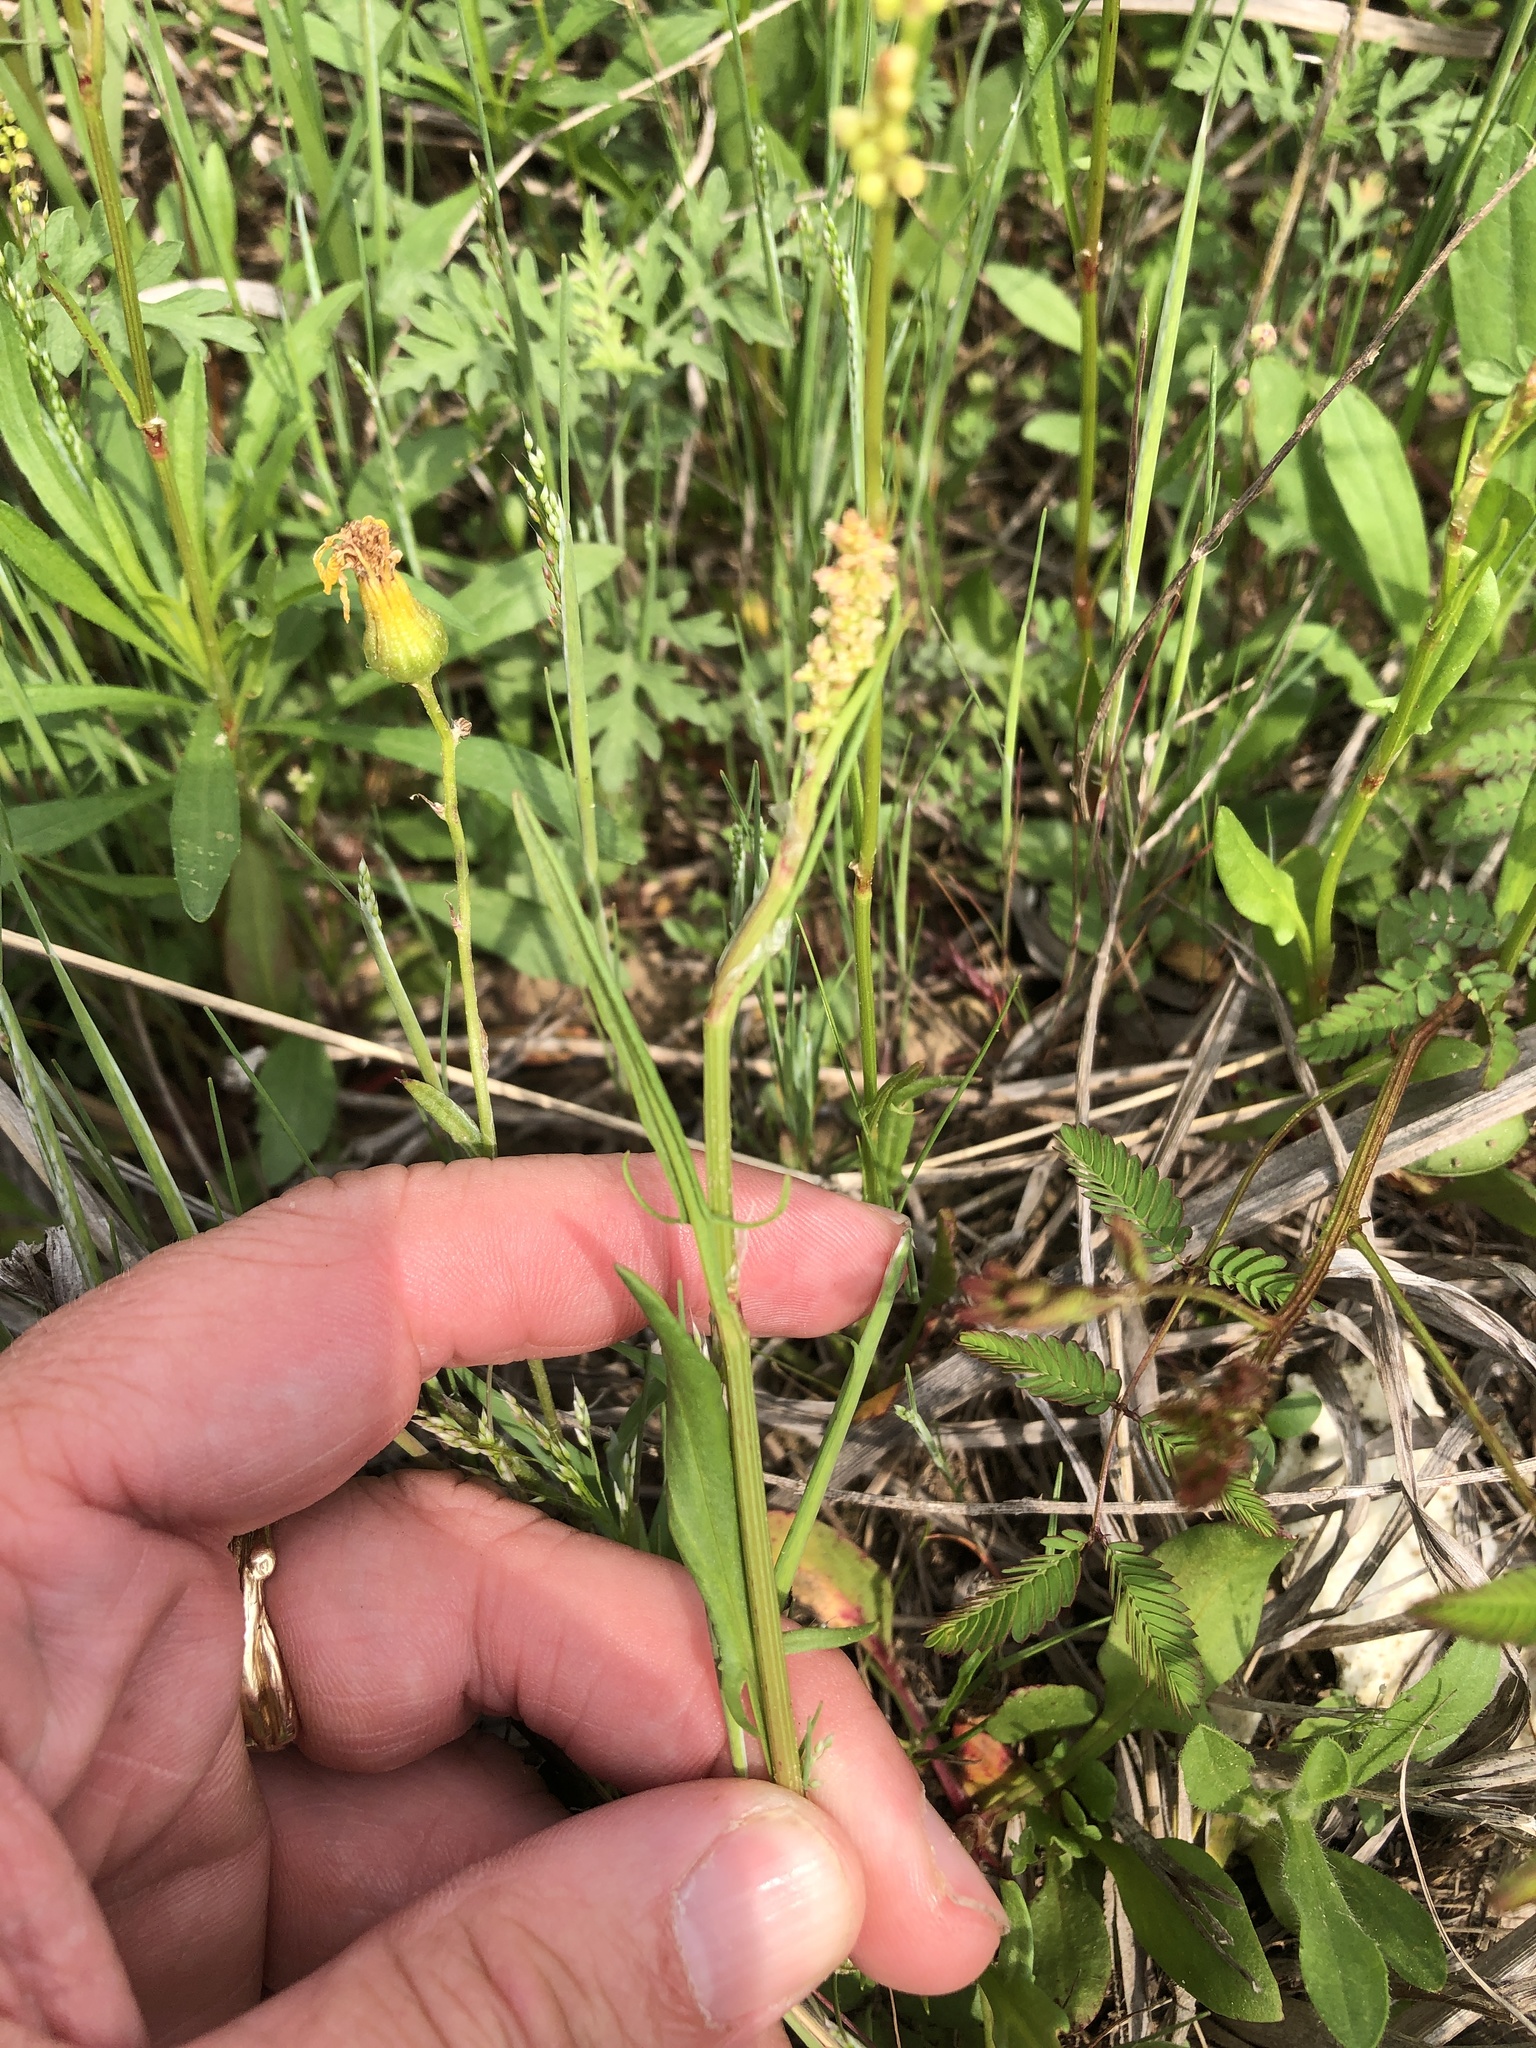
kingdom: Plantae
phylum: Tracheophyta
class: Magnoliopsida
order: Caryophyllales
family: Polygonaceae
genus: Rumex
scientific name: Rumex hastatulus
